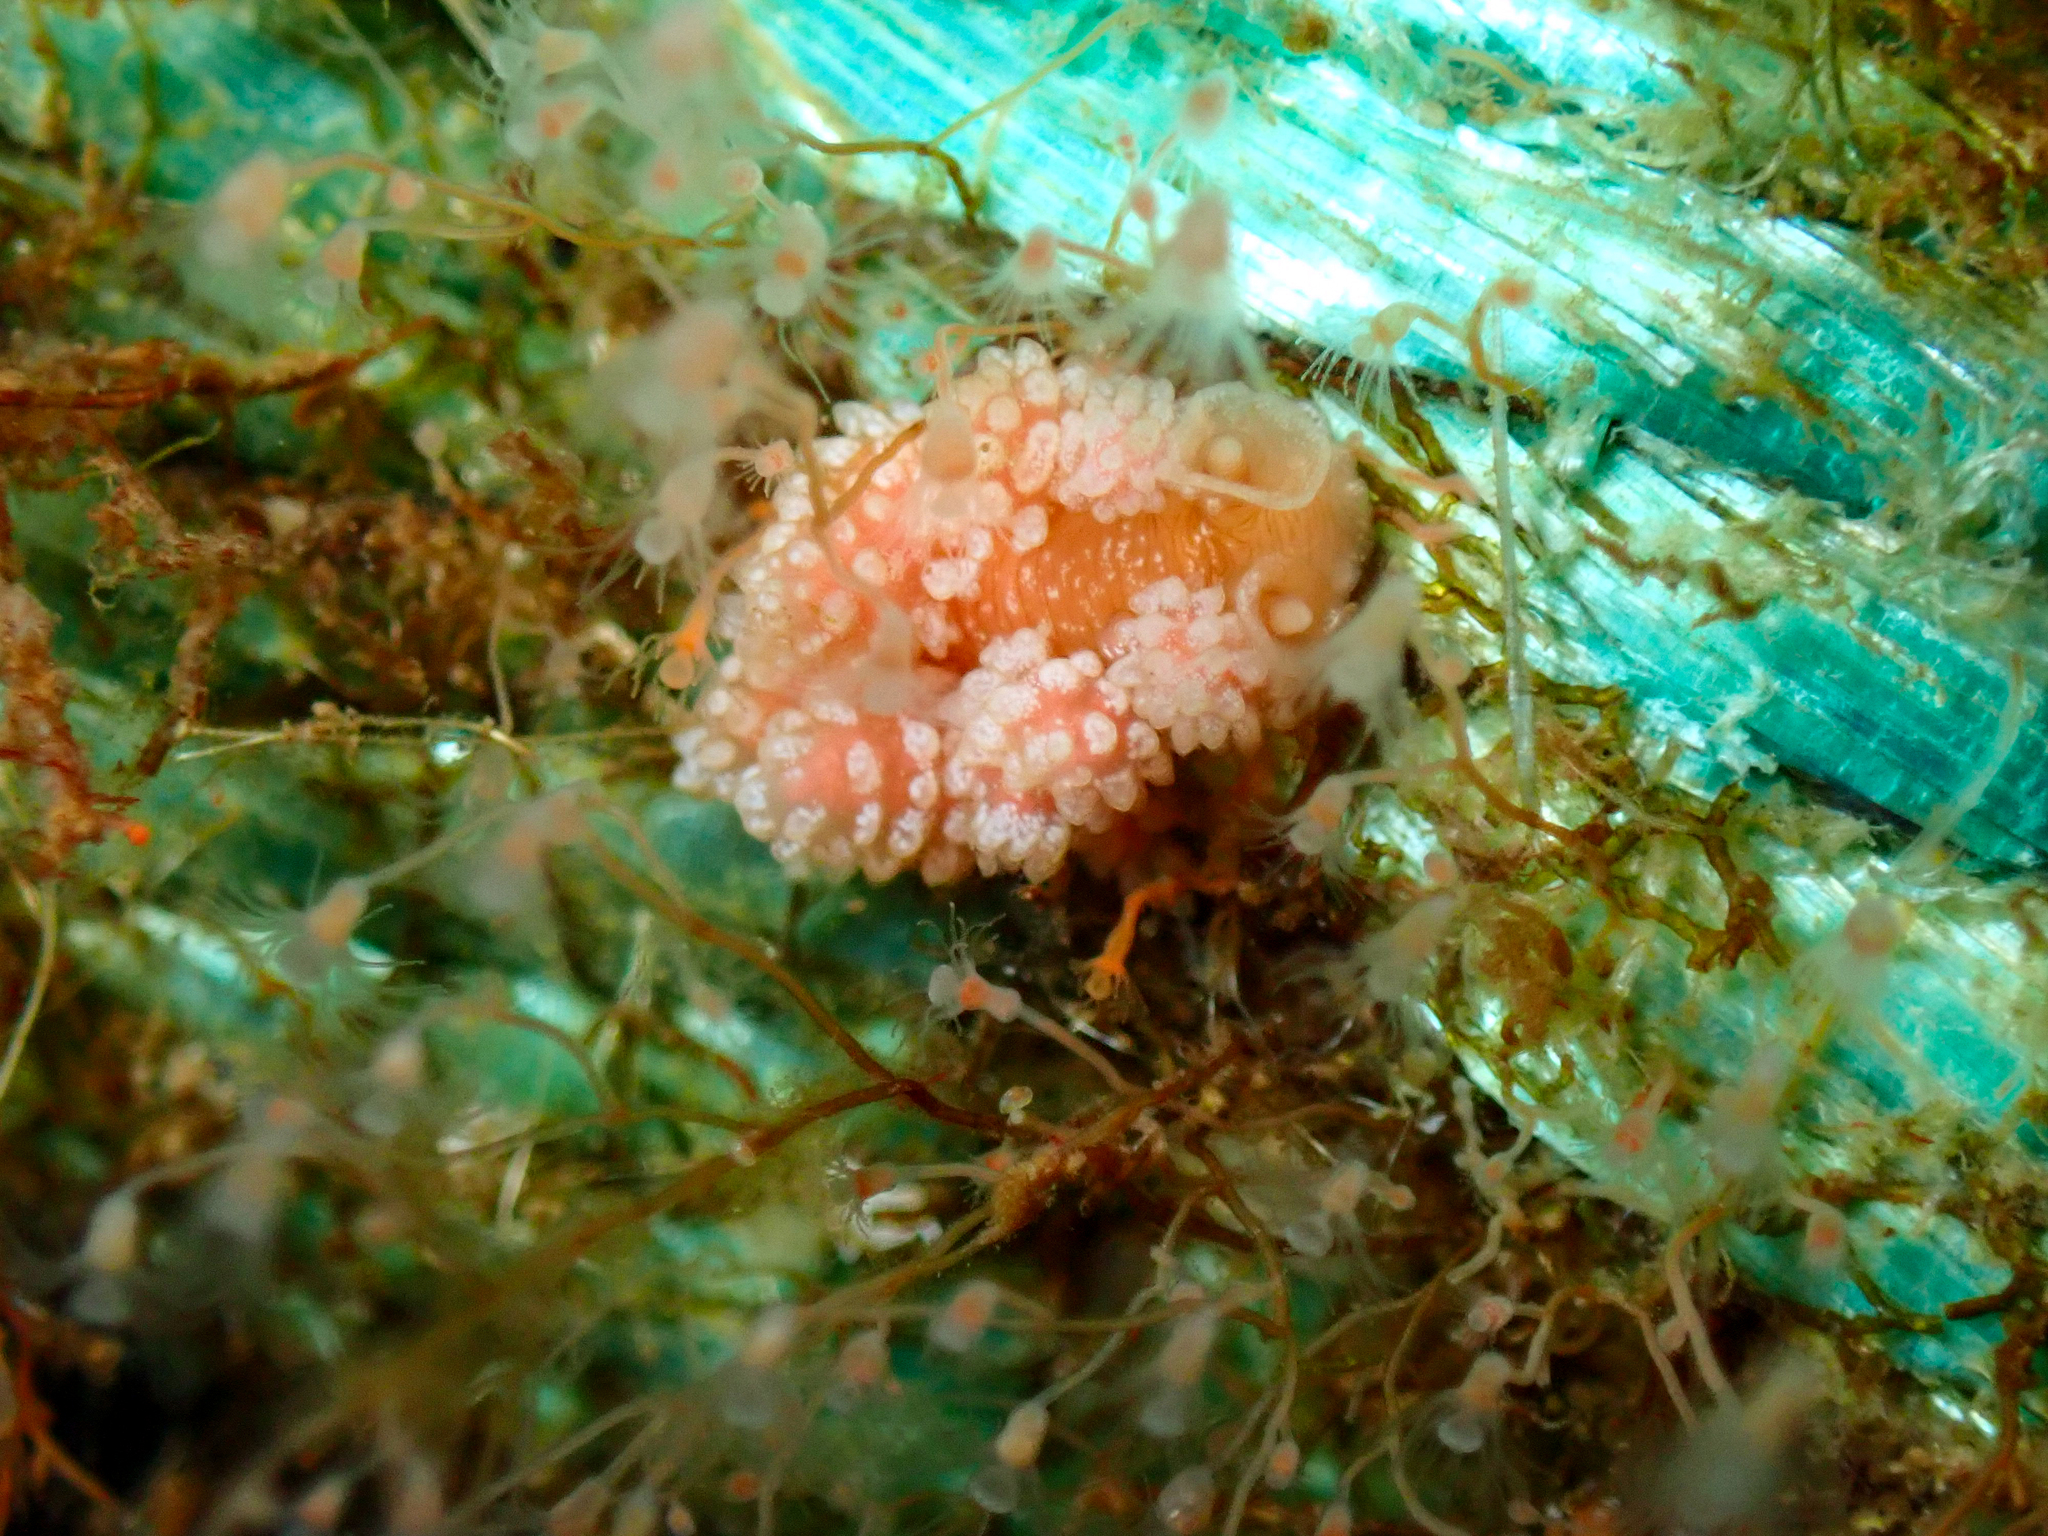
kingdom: Animalia
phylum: Mollusca
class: Gastropoda
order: Nudibranchia
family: Dotidae
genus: Doto
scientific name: Doto fragilis
